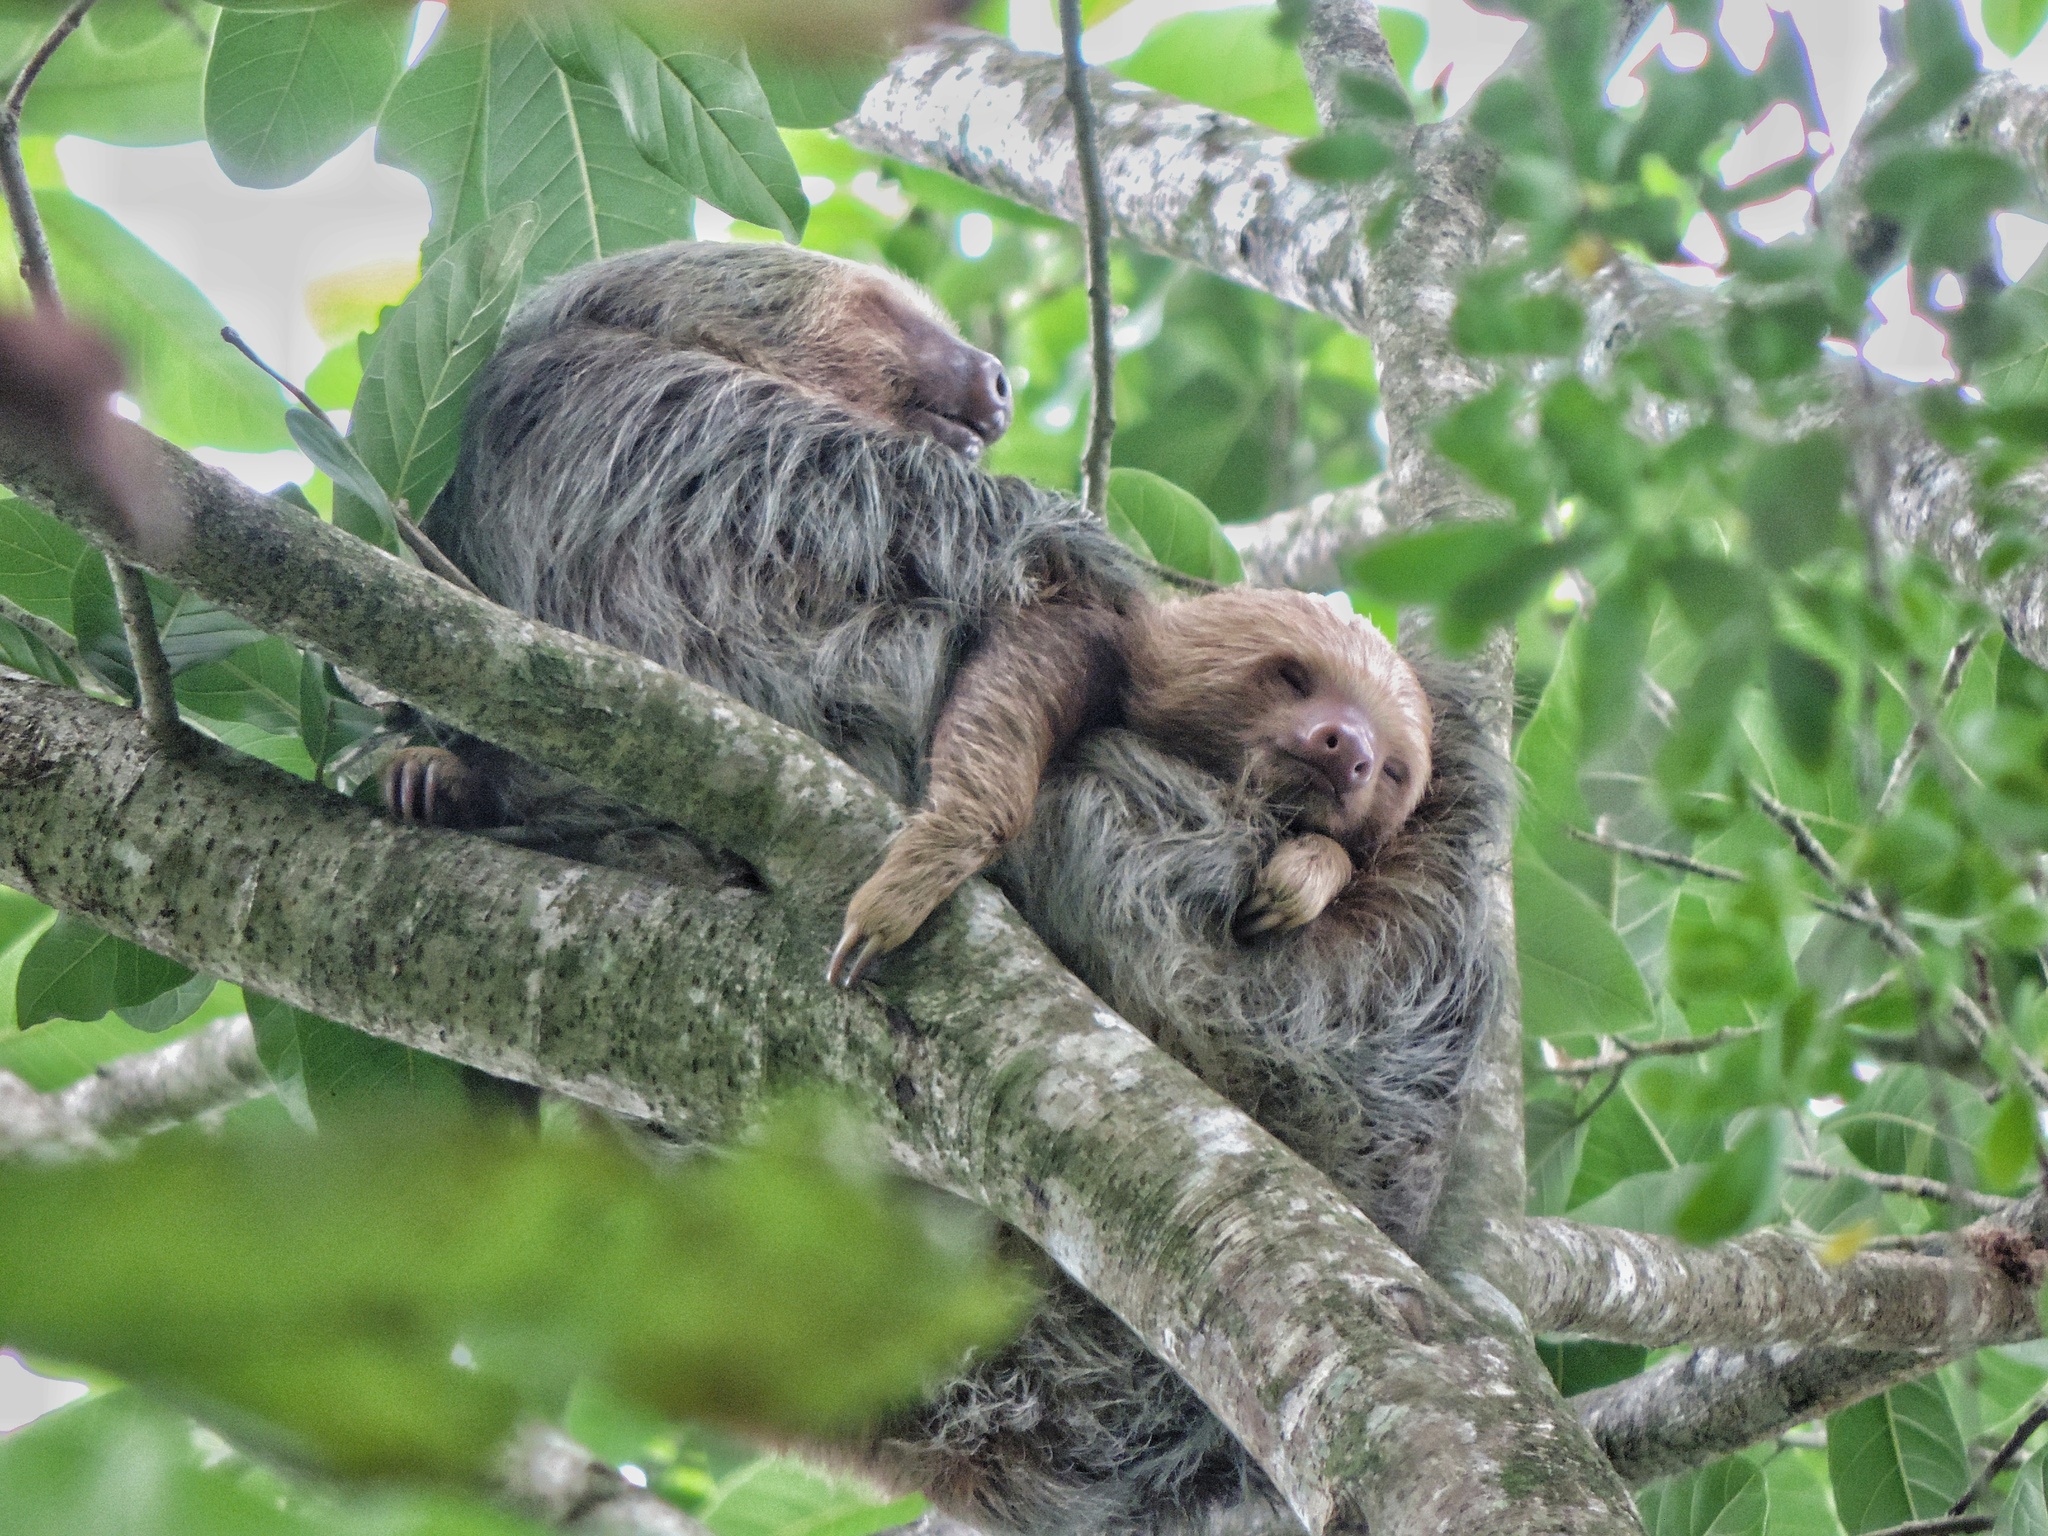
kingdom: Animalia
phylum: Chordata
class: Mammalia
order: Pilosa
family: Megalonychidae
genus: Choloepus
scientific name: Choloepus hoffmanni
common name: Hoffmann's two-toed sloth
